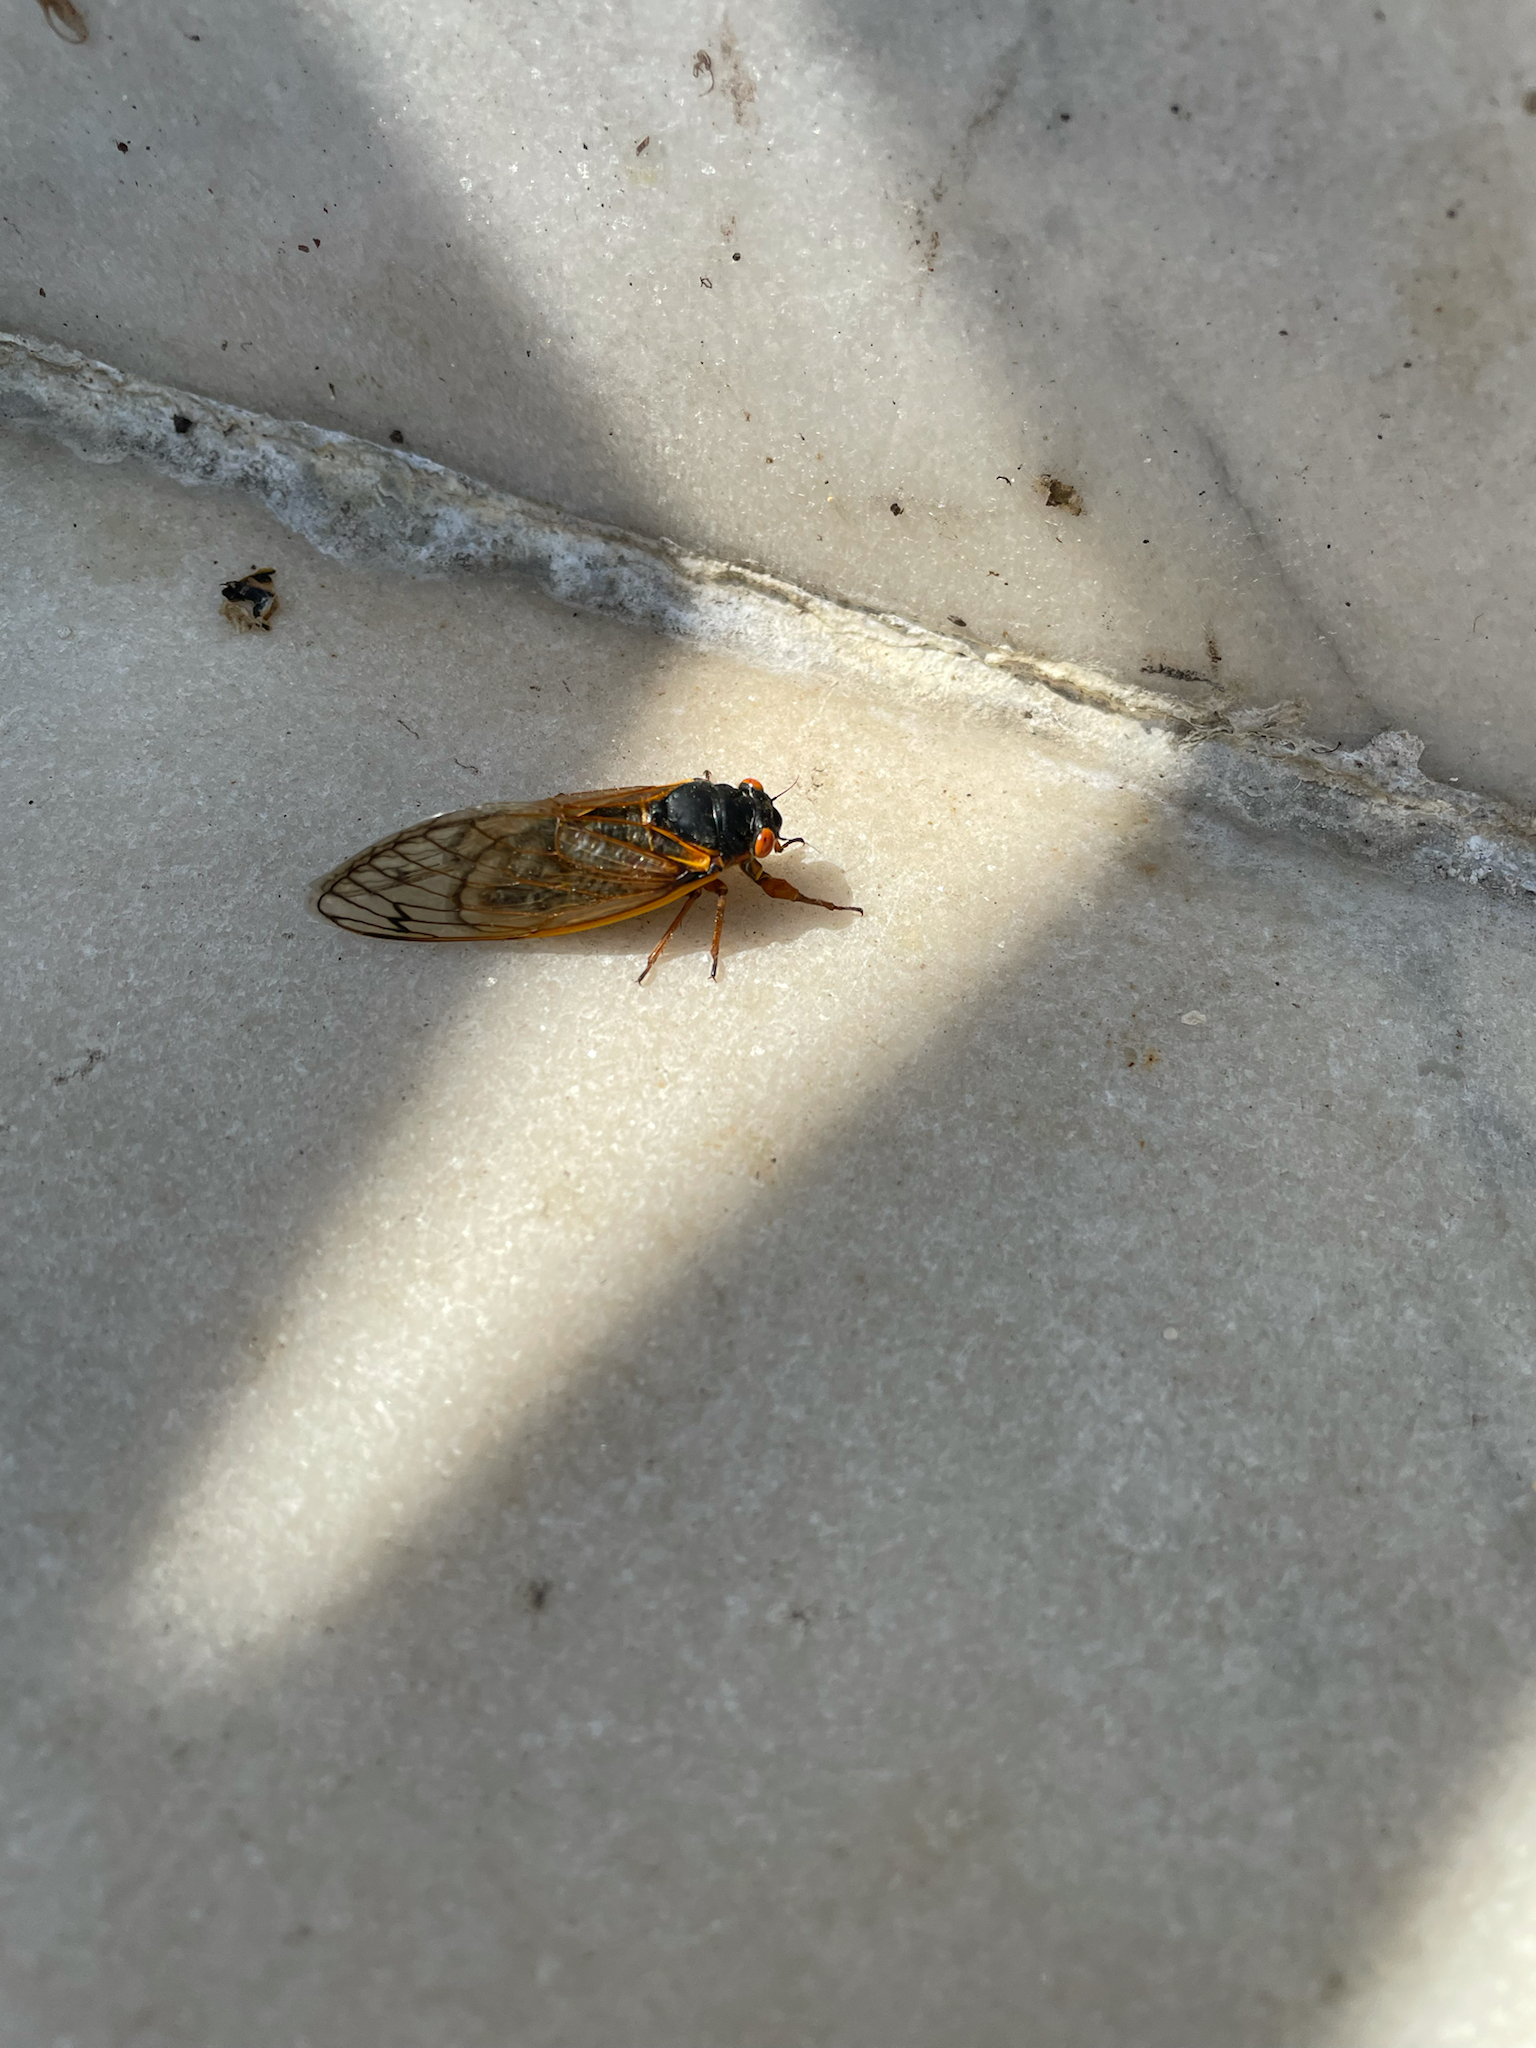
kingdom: Animalia
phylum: Arthropoda
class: Insecta
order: Hemiptera
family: Cicadidae
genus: Magicicada
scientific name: Magicicada septendecim
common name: Periodical cicada
